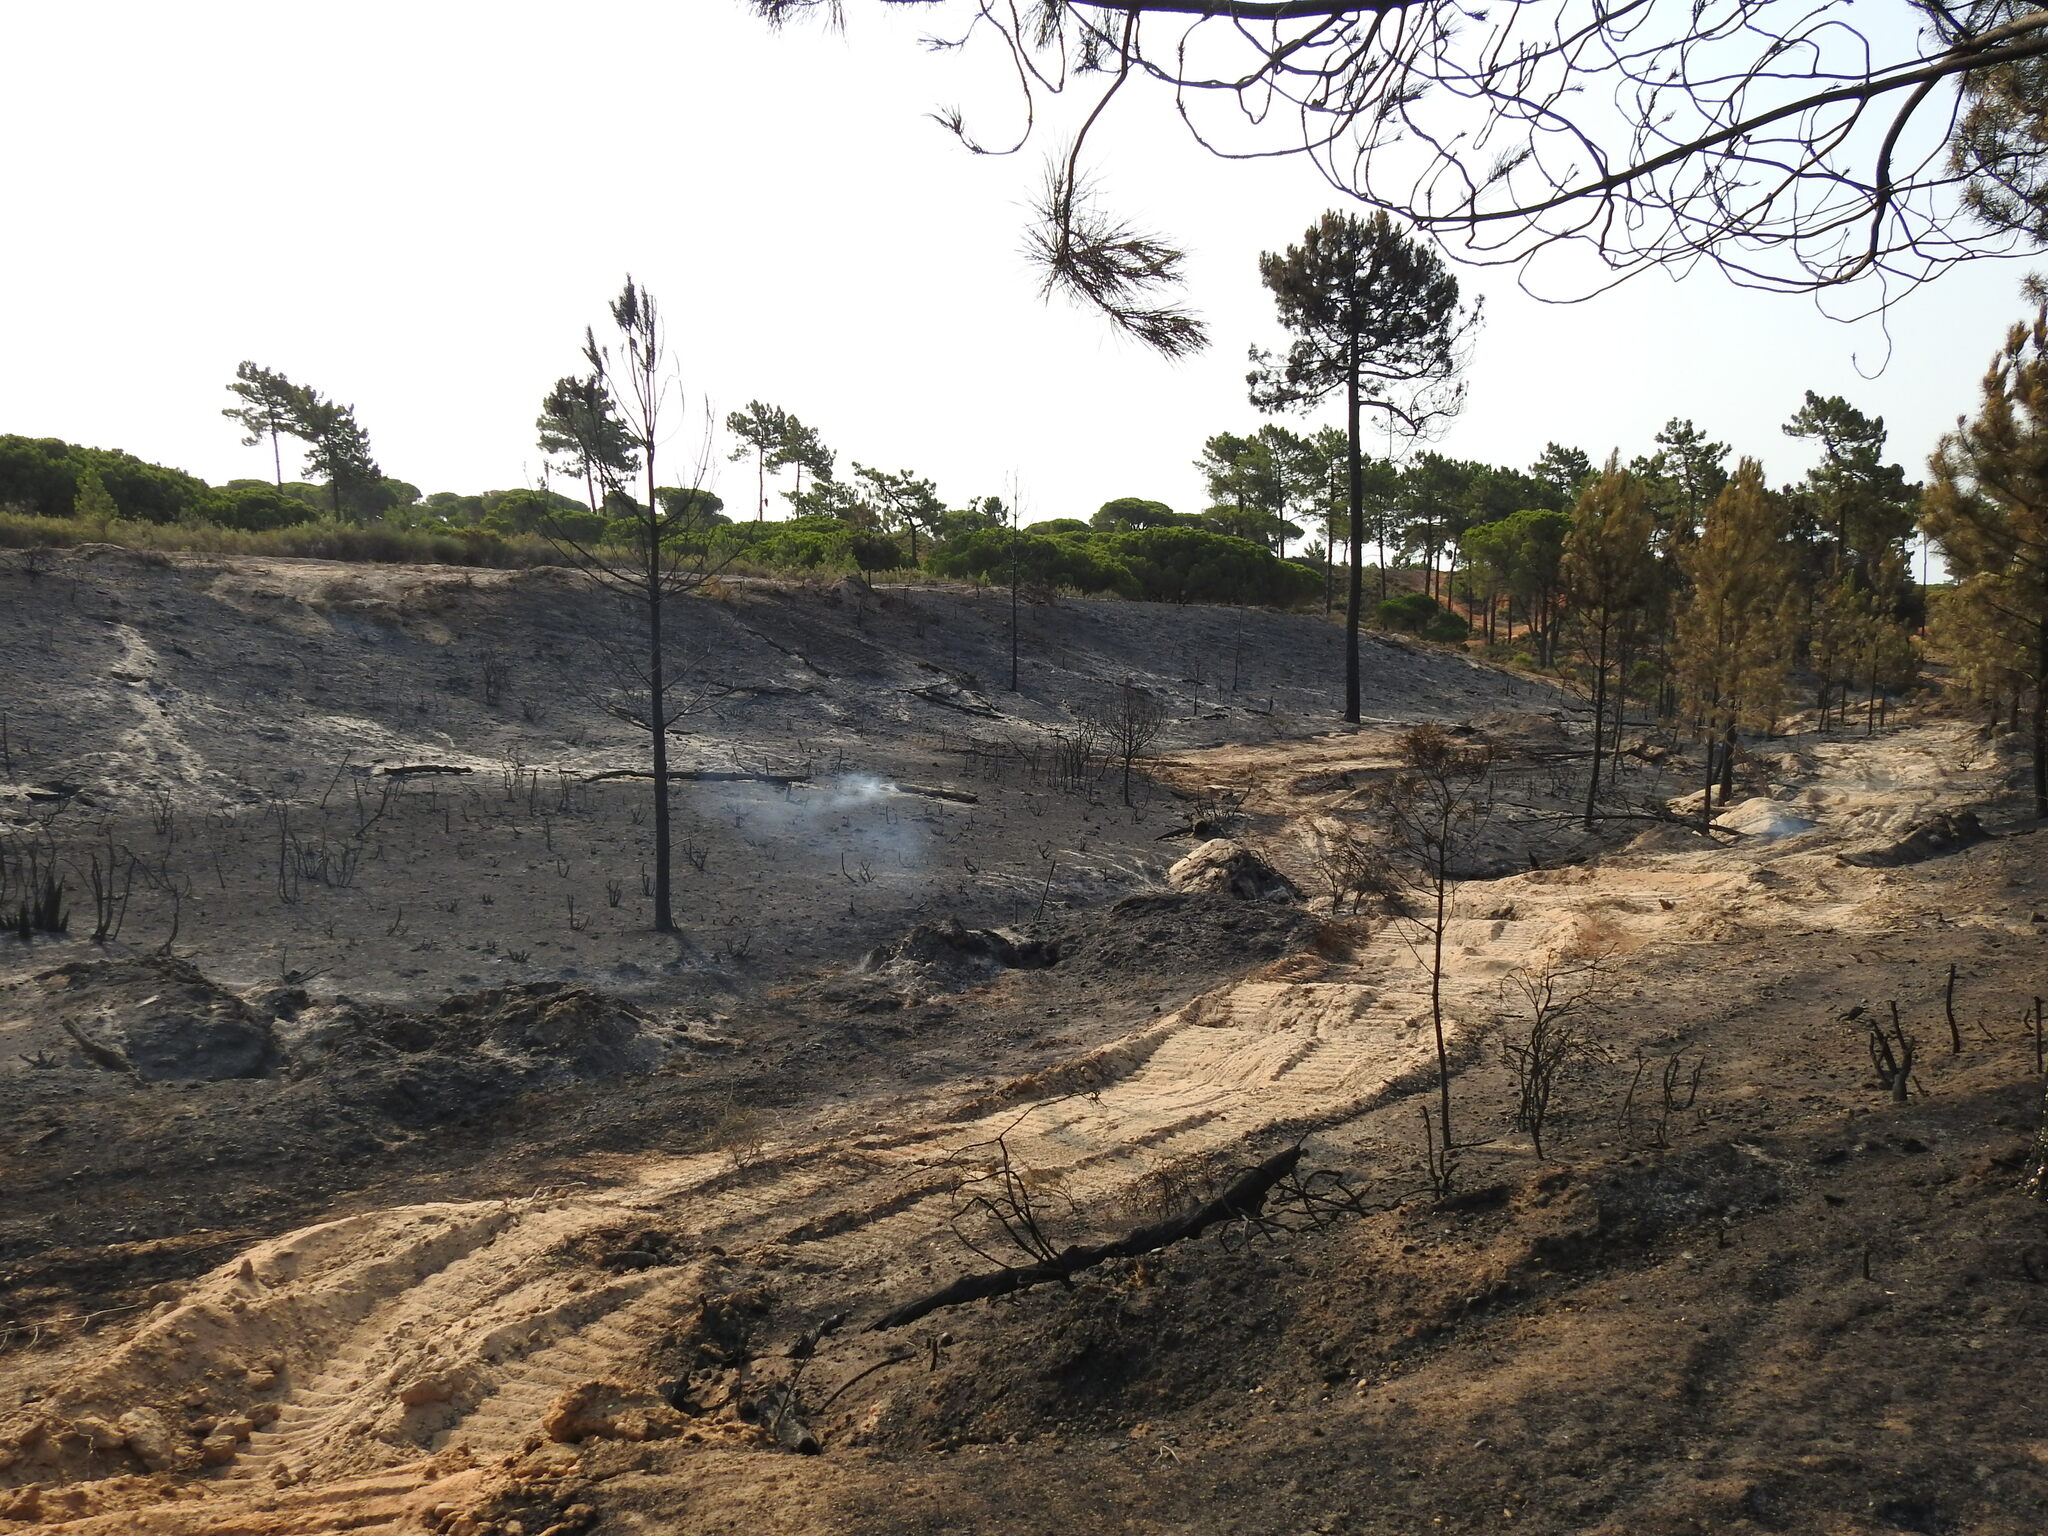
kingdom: Plantae
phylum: Tracheophyta
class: Pinopsida
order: Pinales
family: Pinaceae
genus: Pinus
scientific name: Pinus pinaster
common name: Maritime pine
